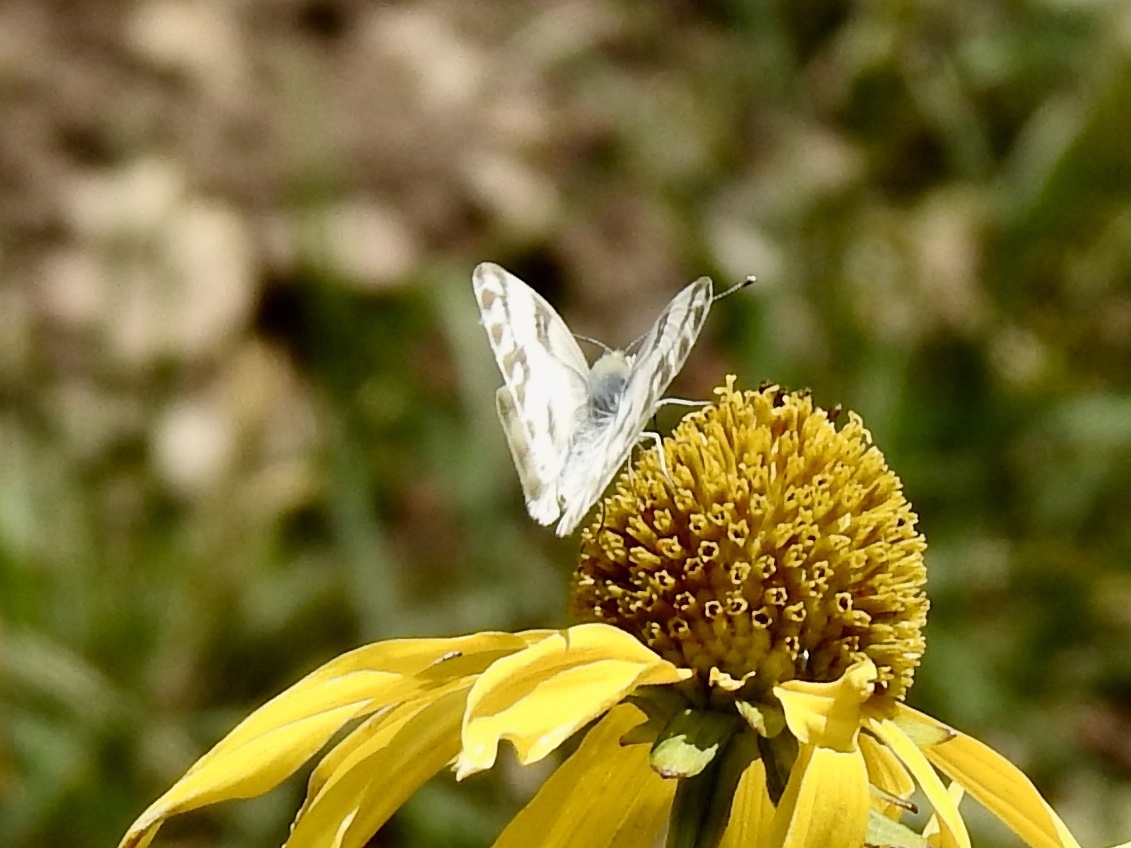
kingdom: Animalia
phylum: Arthropoda
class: Insecta
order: Lepidoptera
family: Pieridae
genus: Pontia
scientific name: Pontia protodice
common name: Checkered white
